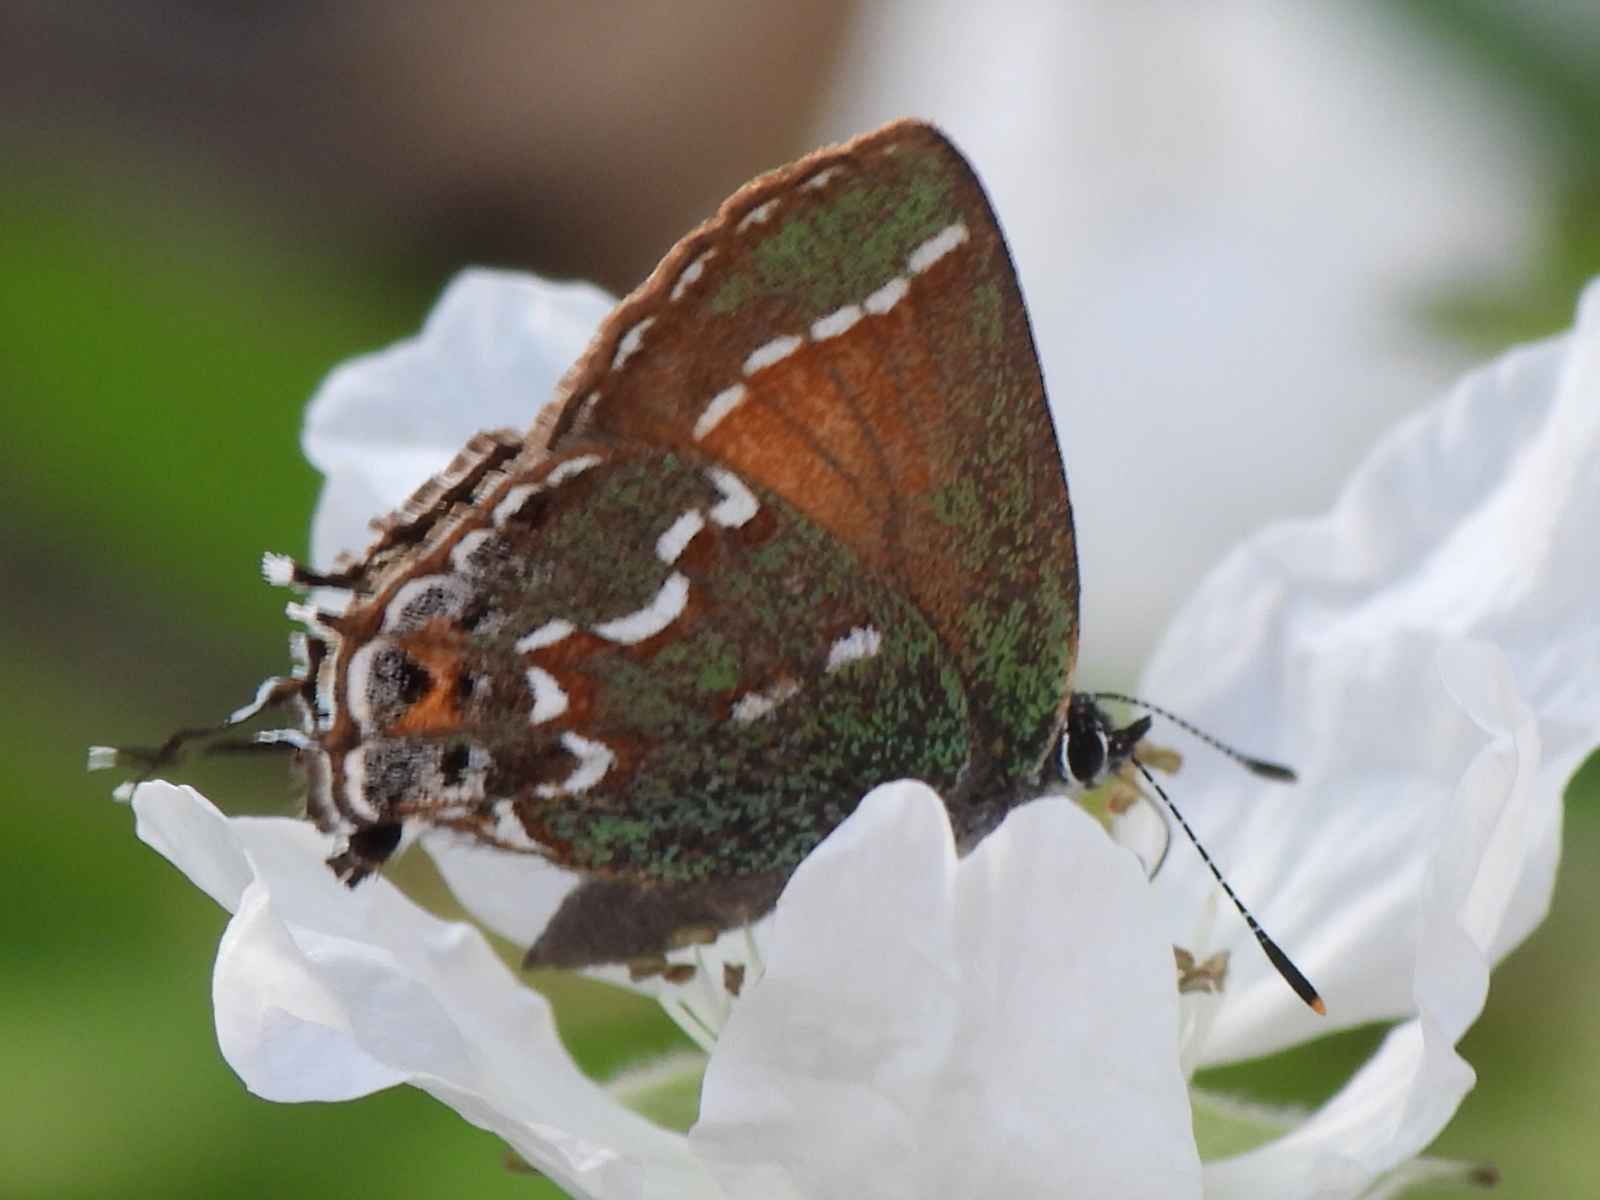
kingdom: Animalia
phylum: Arthropoda
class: Insecta
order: Lepidoptera
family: Lycaenidae
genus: Mitoura
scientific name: Mitoura gryneus
